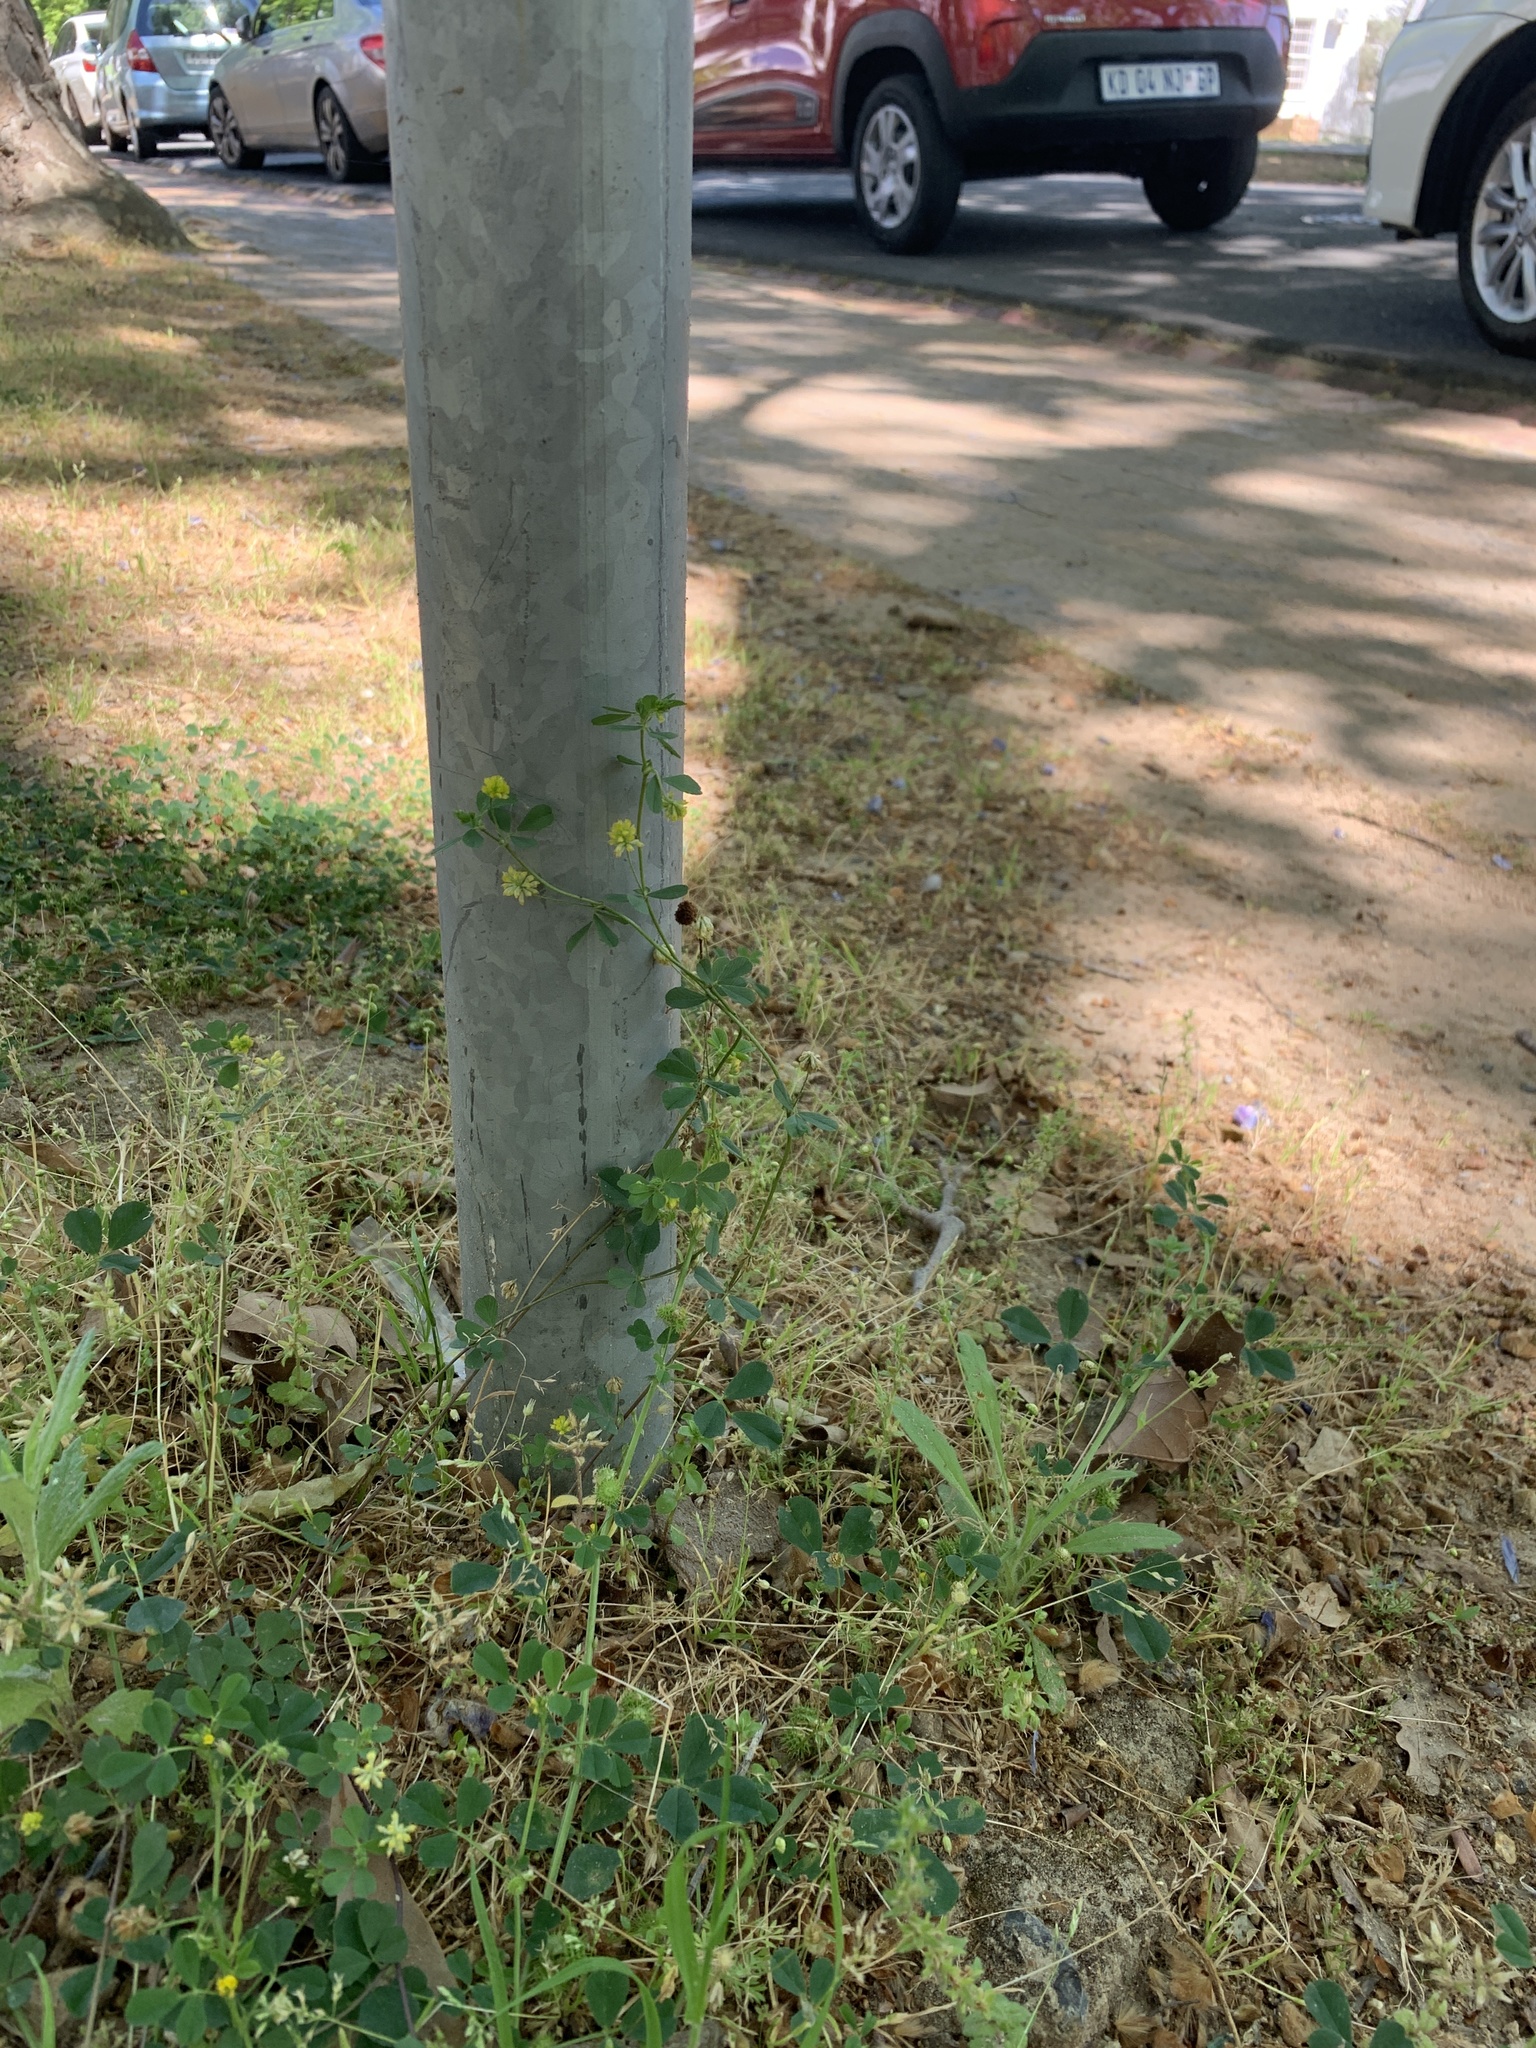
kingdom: Plantae
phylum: Tracheophyta
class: Magnoliopsida
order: Fabales
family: Fabaceae
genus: Trifolium
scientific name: Trifolium campestre
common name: Field clover
